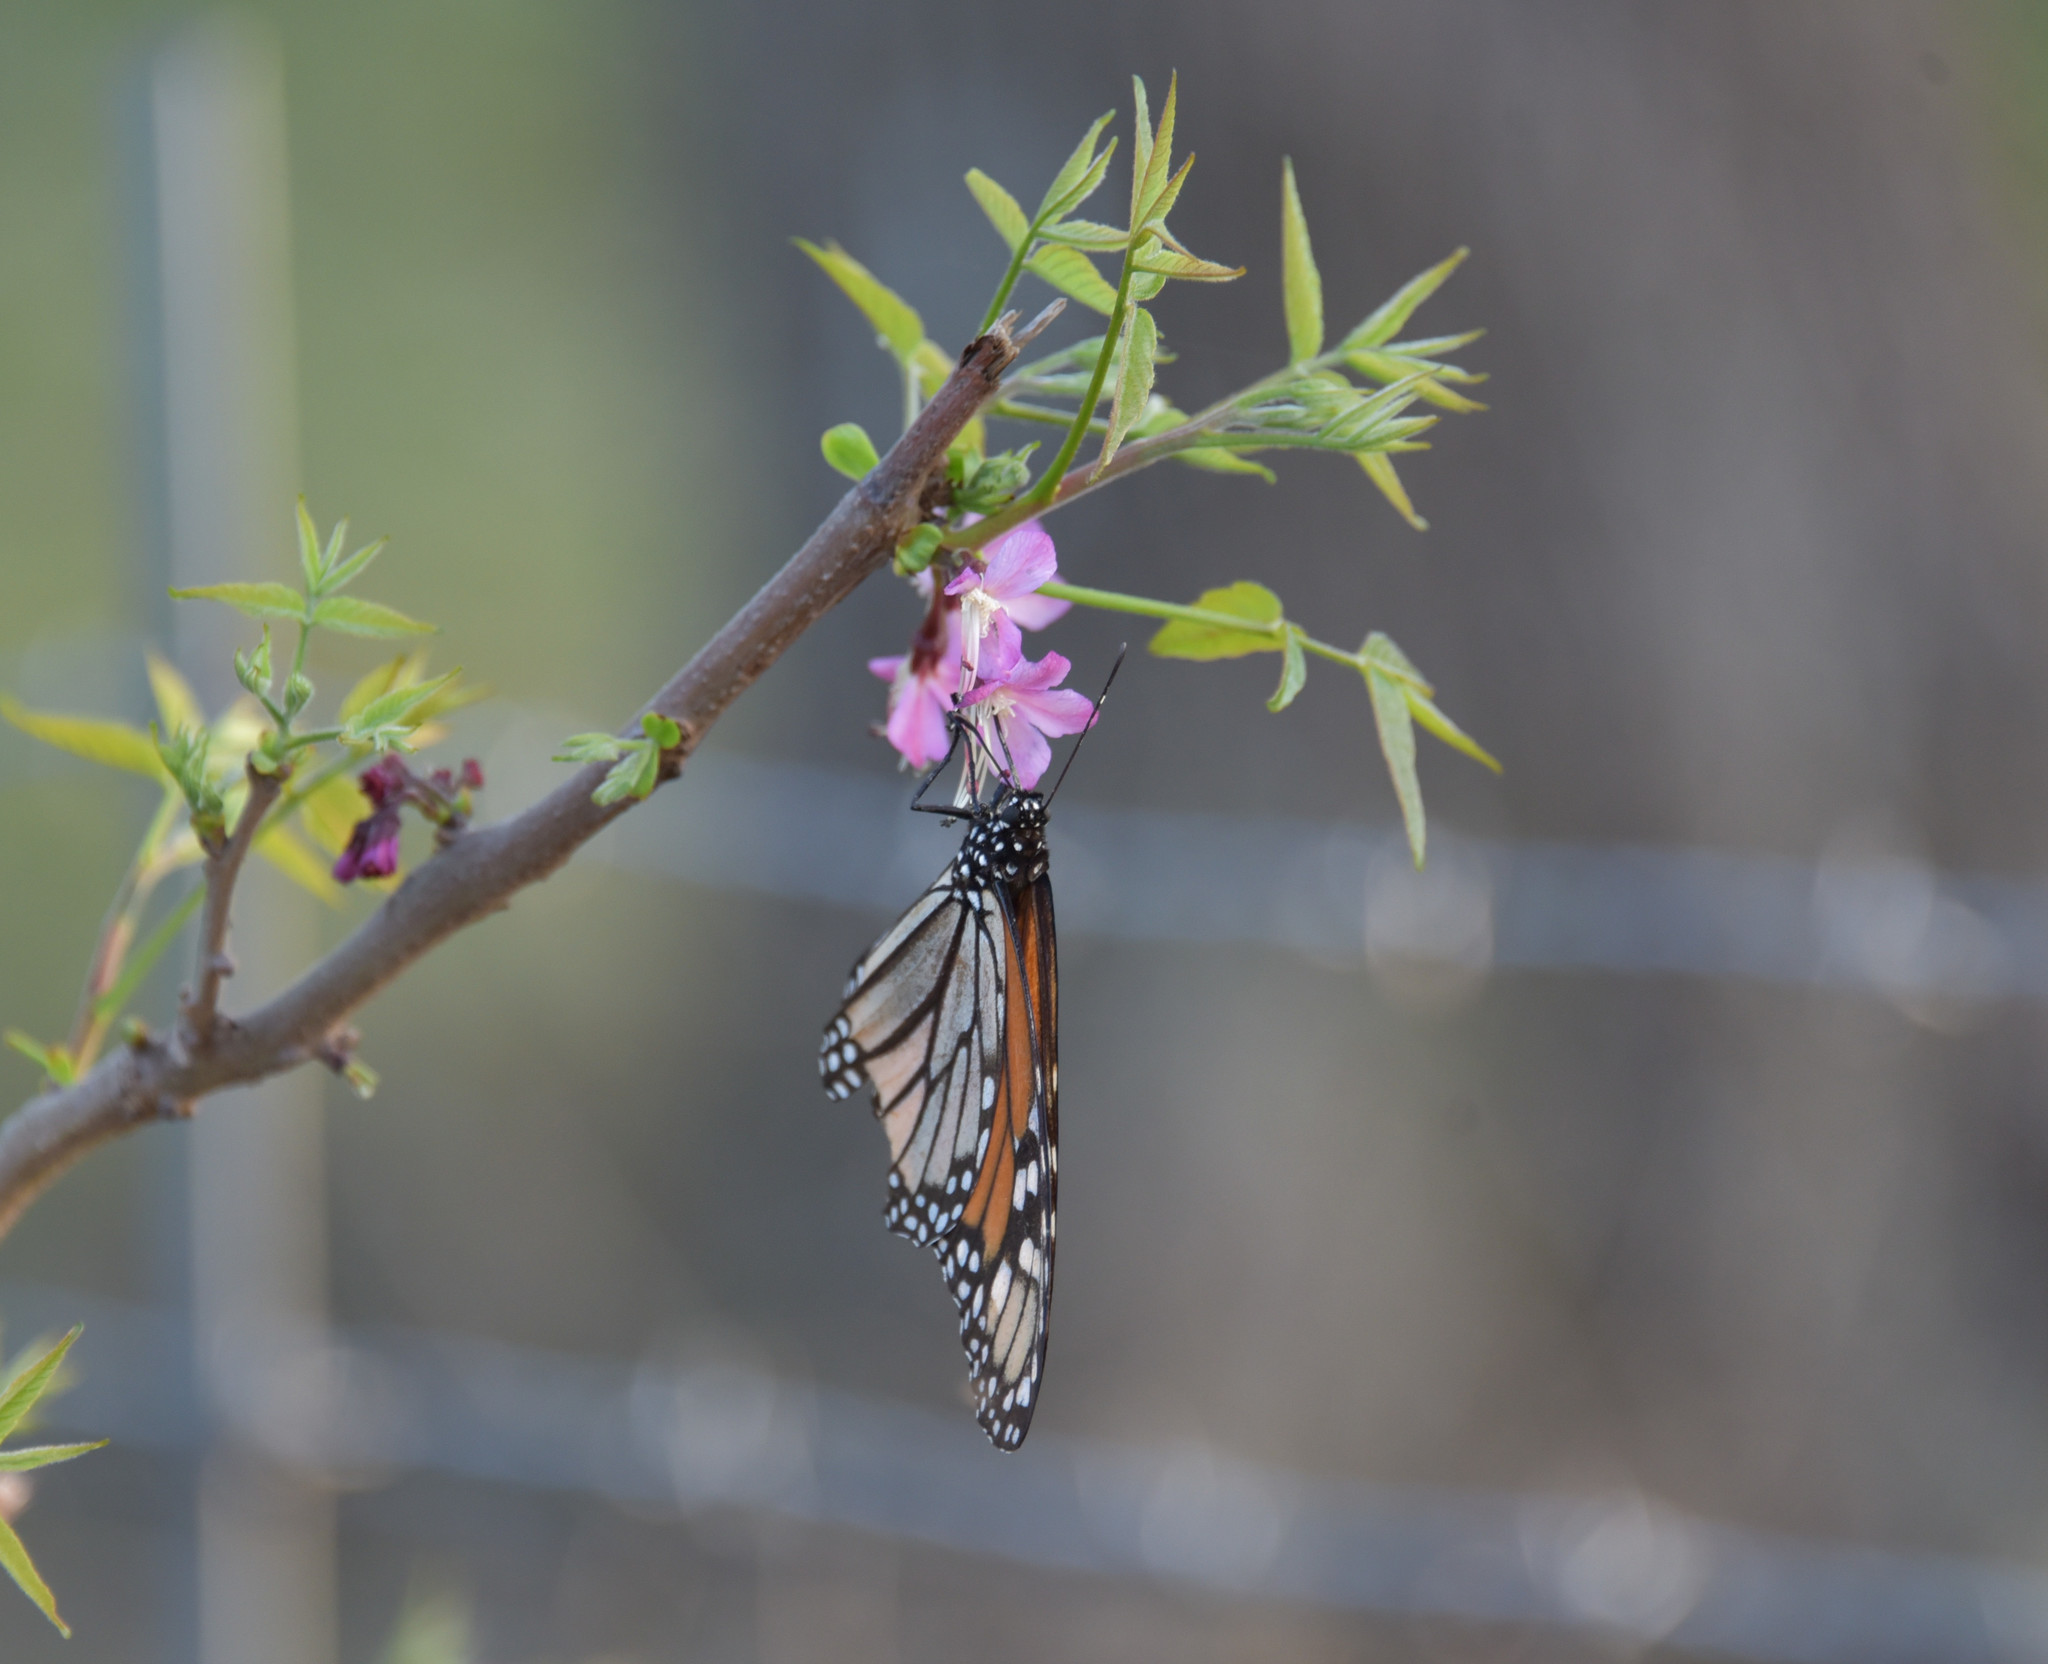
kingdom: Animalia
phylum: Arthropoda
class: Insecta
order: Lepidoptera
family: Nymphalidae
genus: Danaus
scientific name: Danaus plexippus
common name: Monarch
